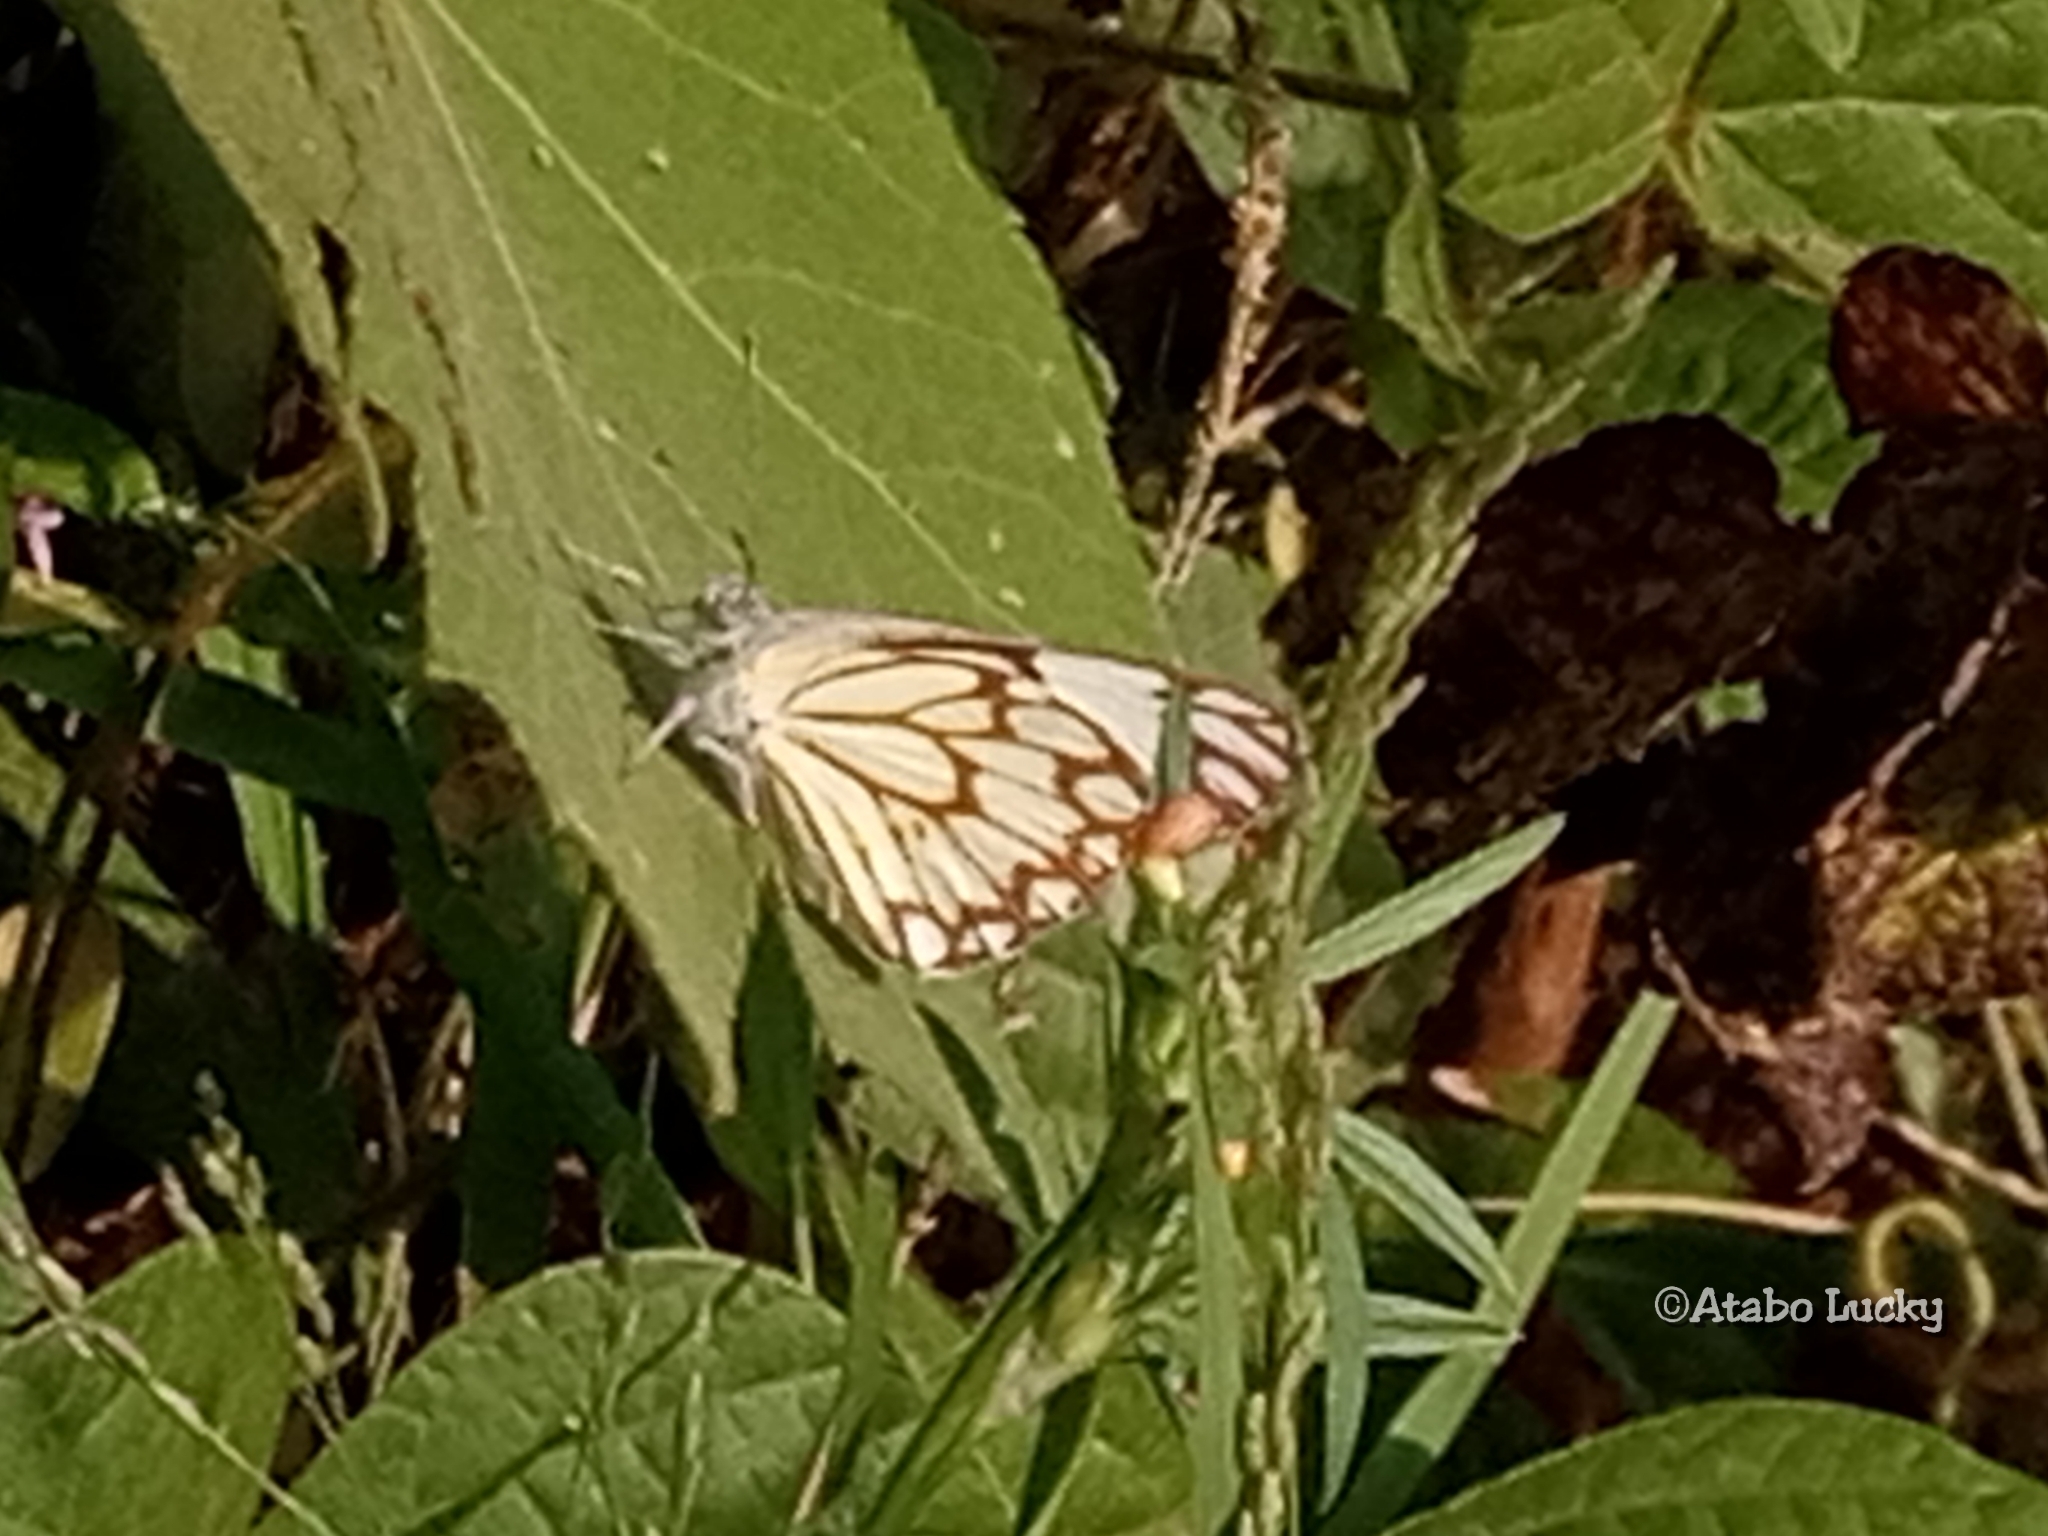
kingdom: Animalia
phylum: Arthropoda
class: Insecta
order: Lepidoptera
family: Pieridae
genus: Belenois
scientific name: Belenois aurota
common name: Brown-veined white
